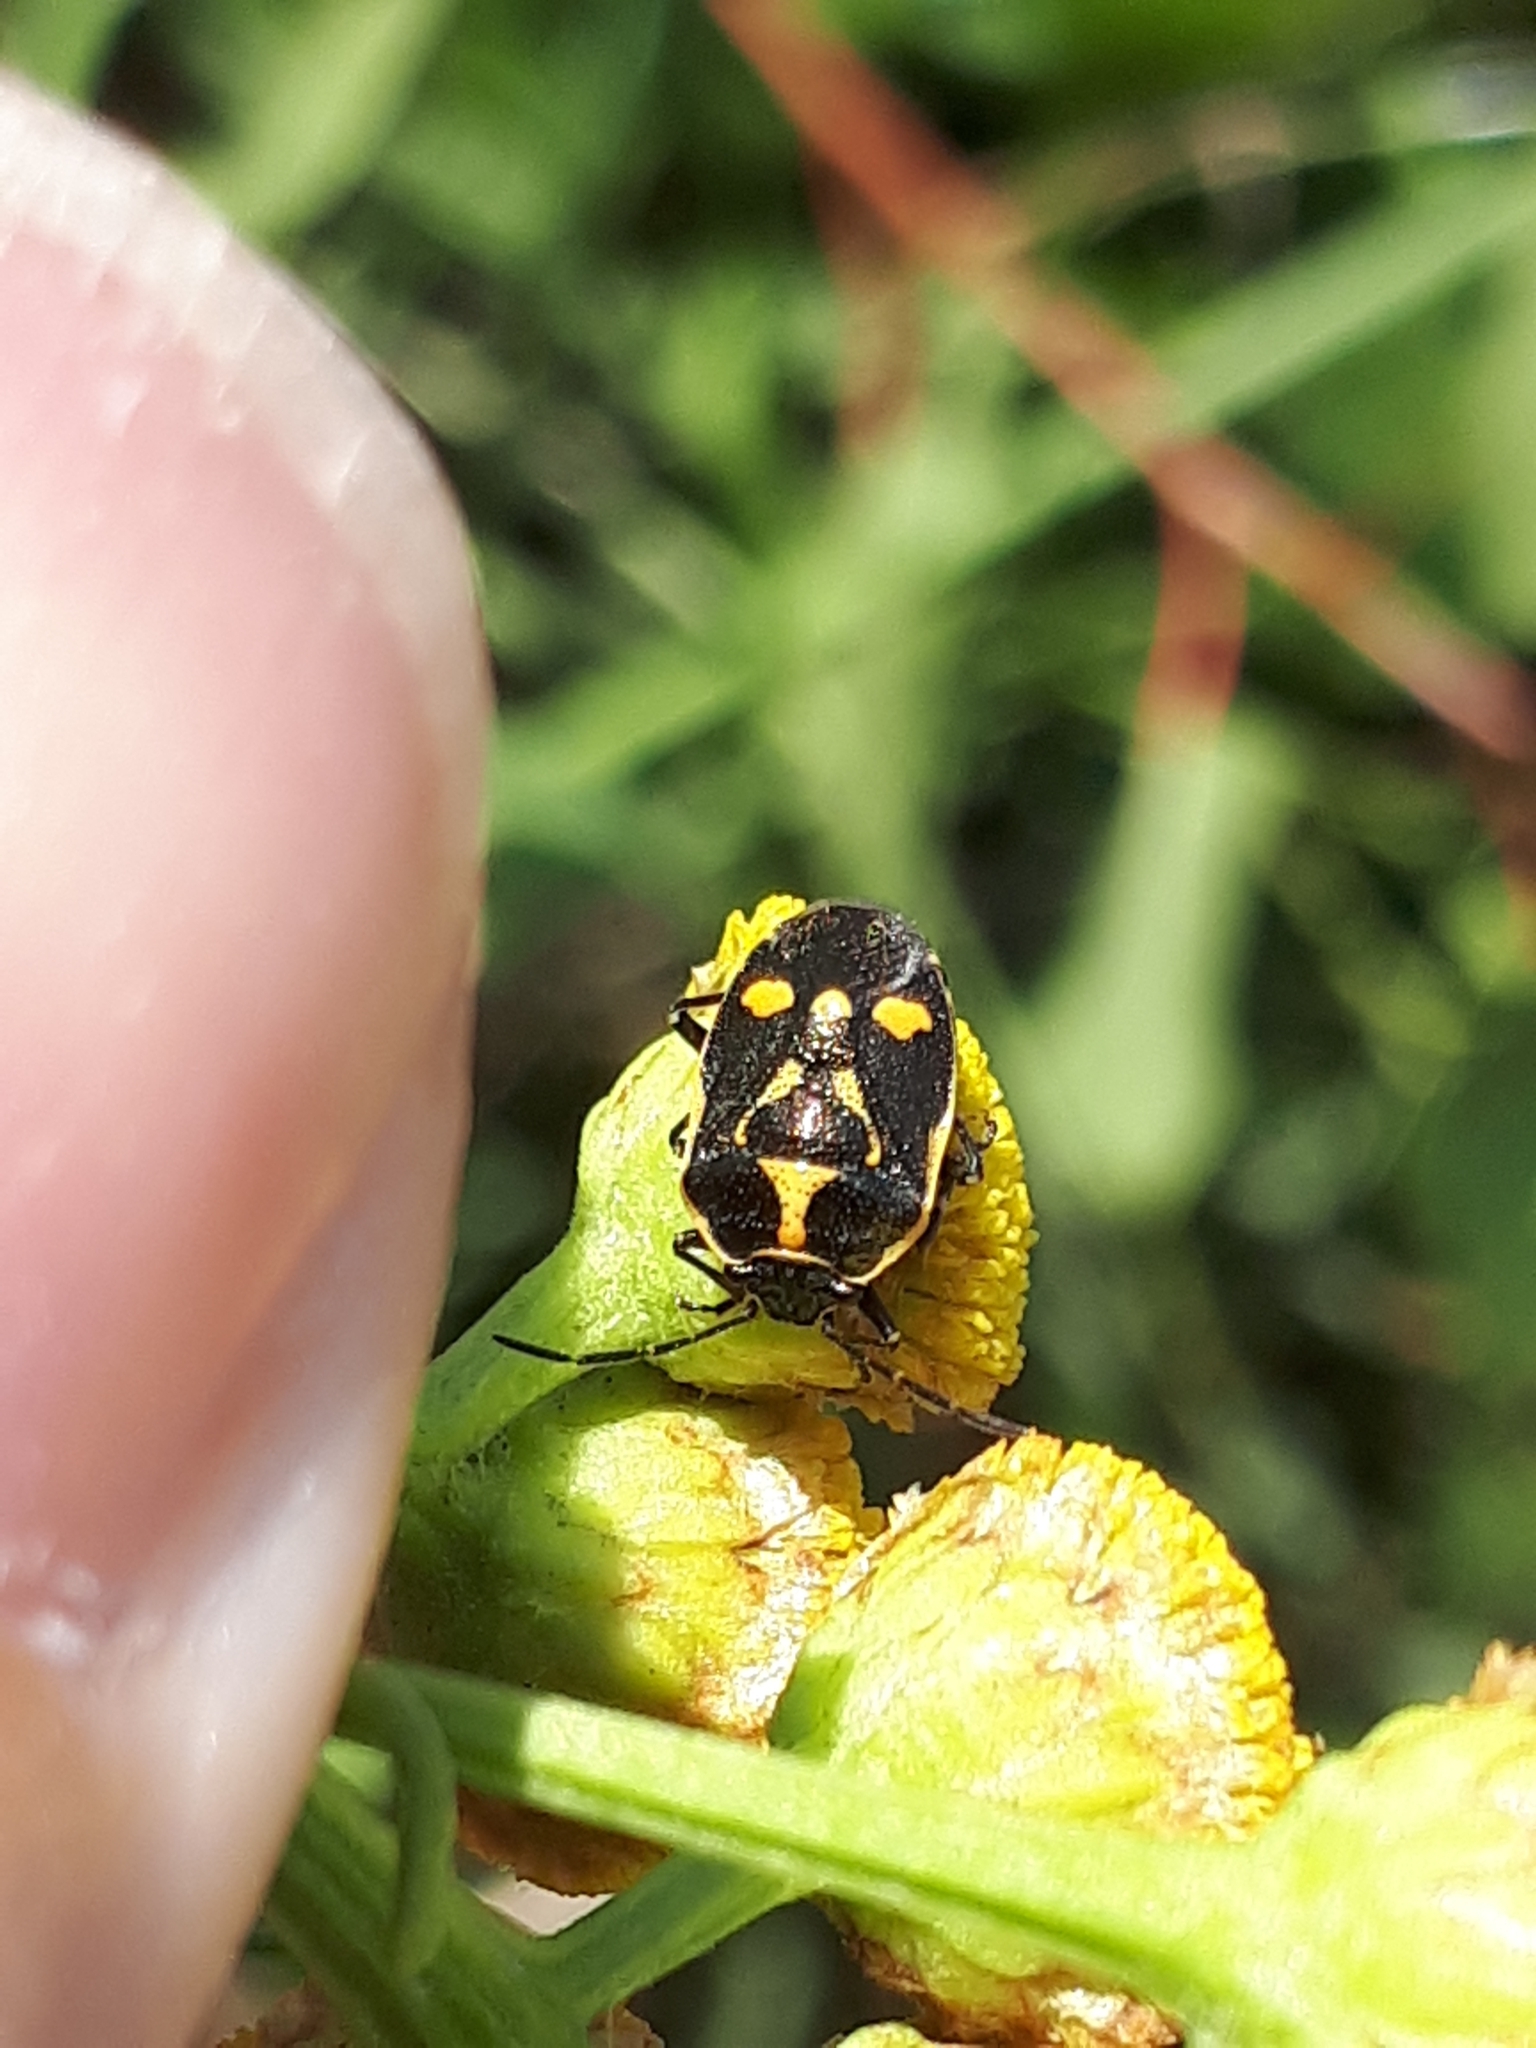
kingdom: Animalia
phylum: Arthropoda
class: Insecta
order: Hemiptera
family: Pentatomidae
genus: Eurydema
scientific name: Eurydema oleracea
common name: Cabbage bug
